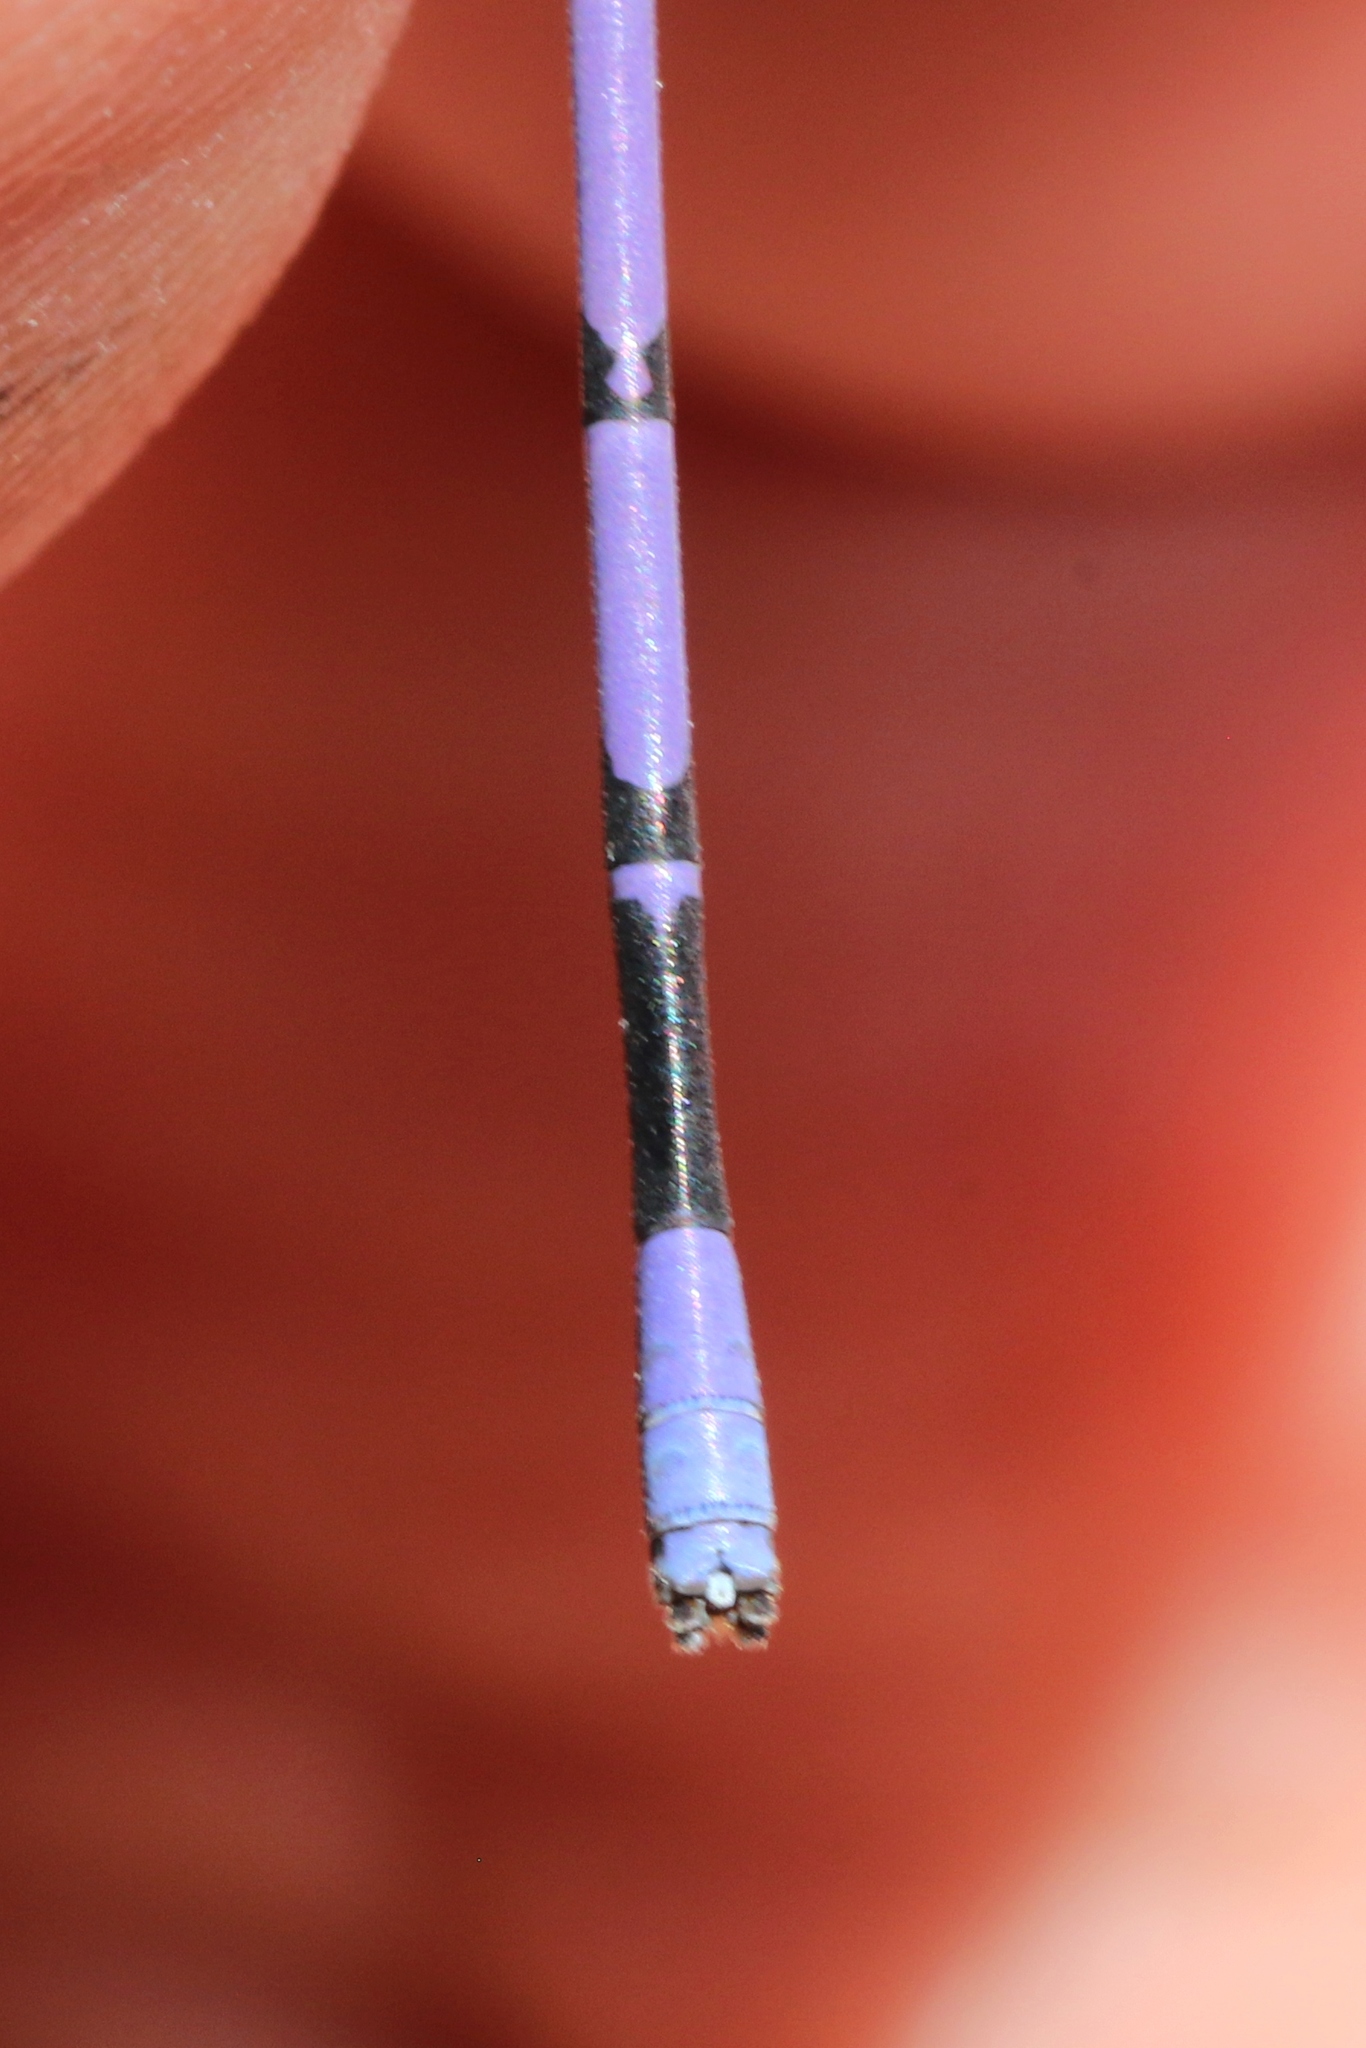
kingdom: Animalia
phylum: Arthropoda
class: Insecta
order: Odonata
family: Coenagrionidae
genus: Argia
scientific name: Argia fumipennis
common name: Variable dancer
